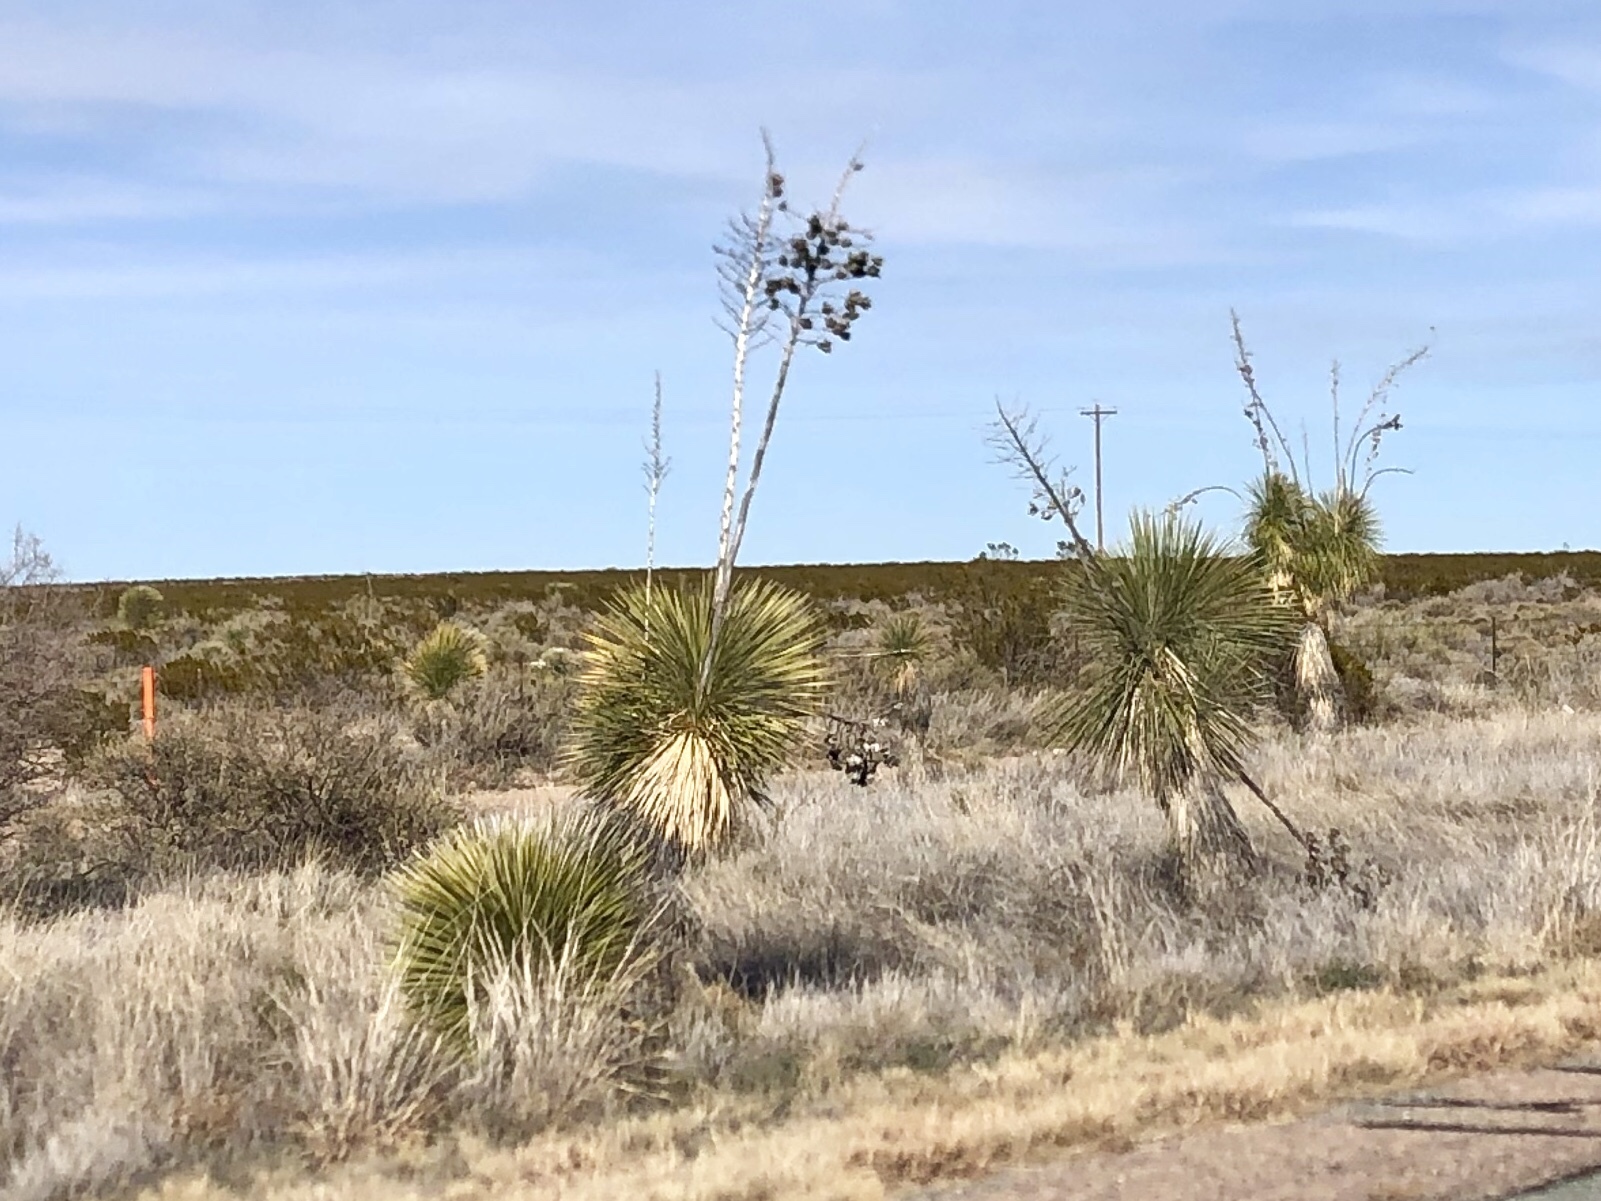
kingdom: Plantae
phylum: Tracheophyta
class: Liliopsida
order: Asparagales
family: Asparagaceae
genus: Yucca
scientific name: Yucca elata
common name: Palmella
